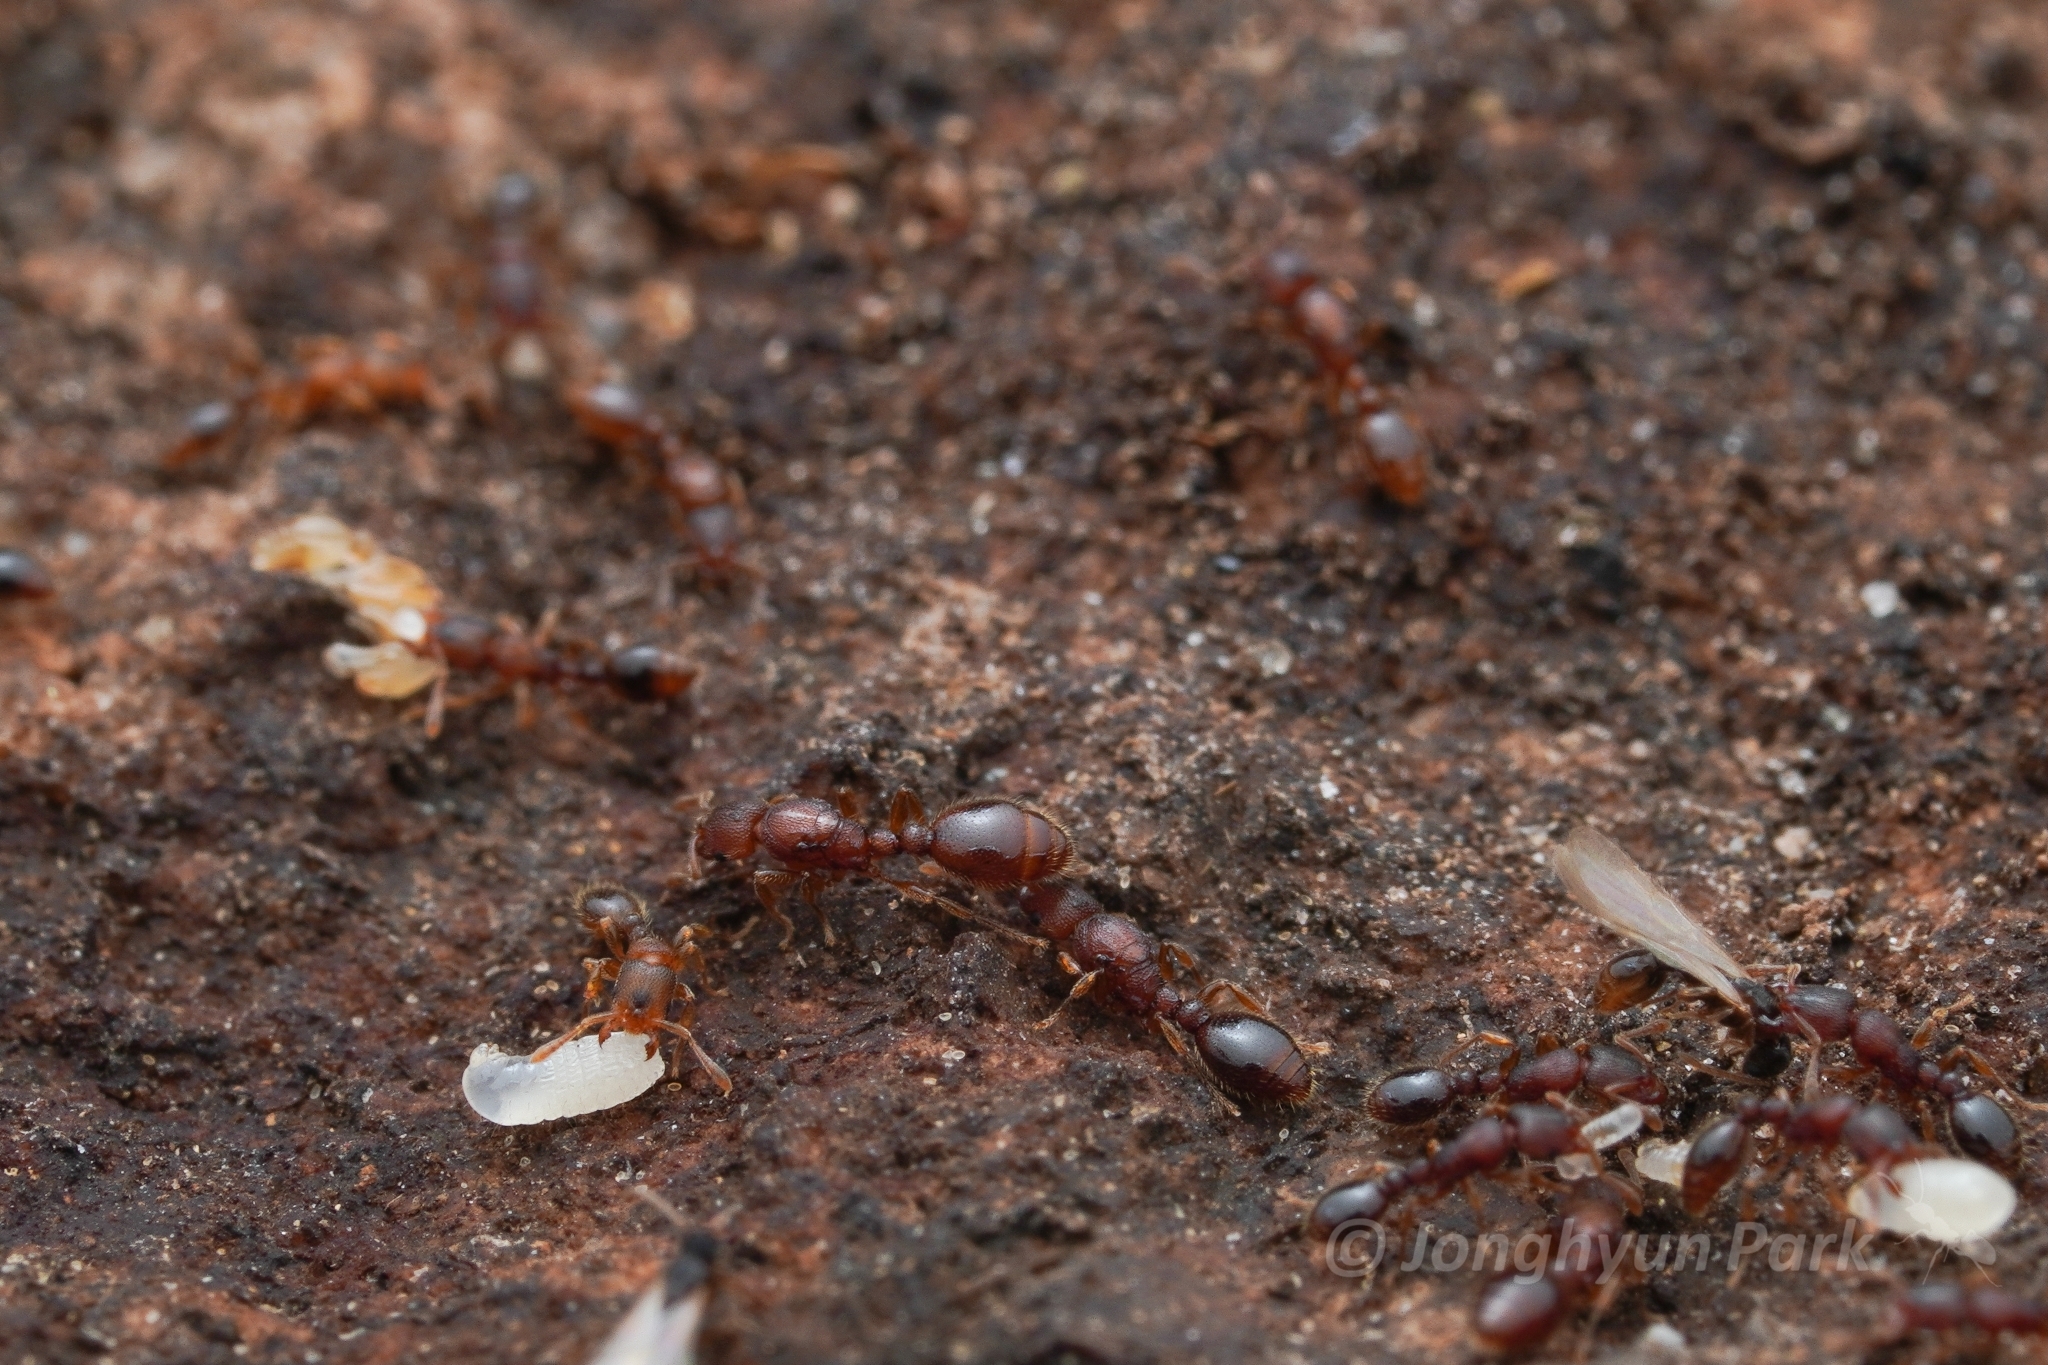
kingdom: Animalia
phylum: Arthropoda
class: Insecta
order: Hymenoptera
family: Formicidae
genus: Vollenhovia
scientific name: Vollenhovia emeryi
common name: Ant
